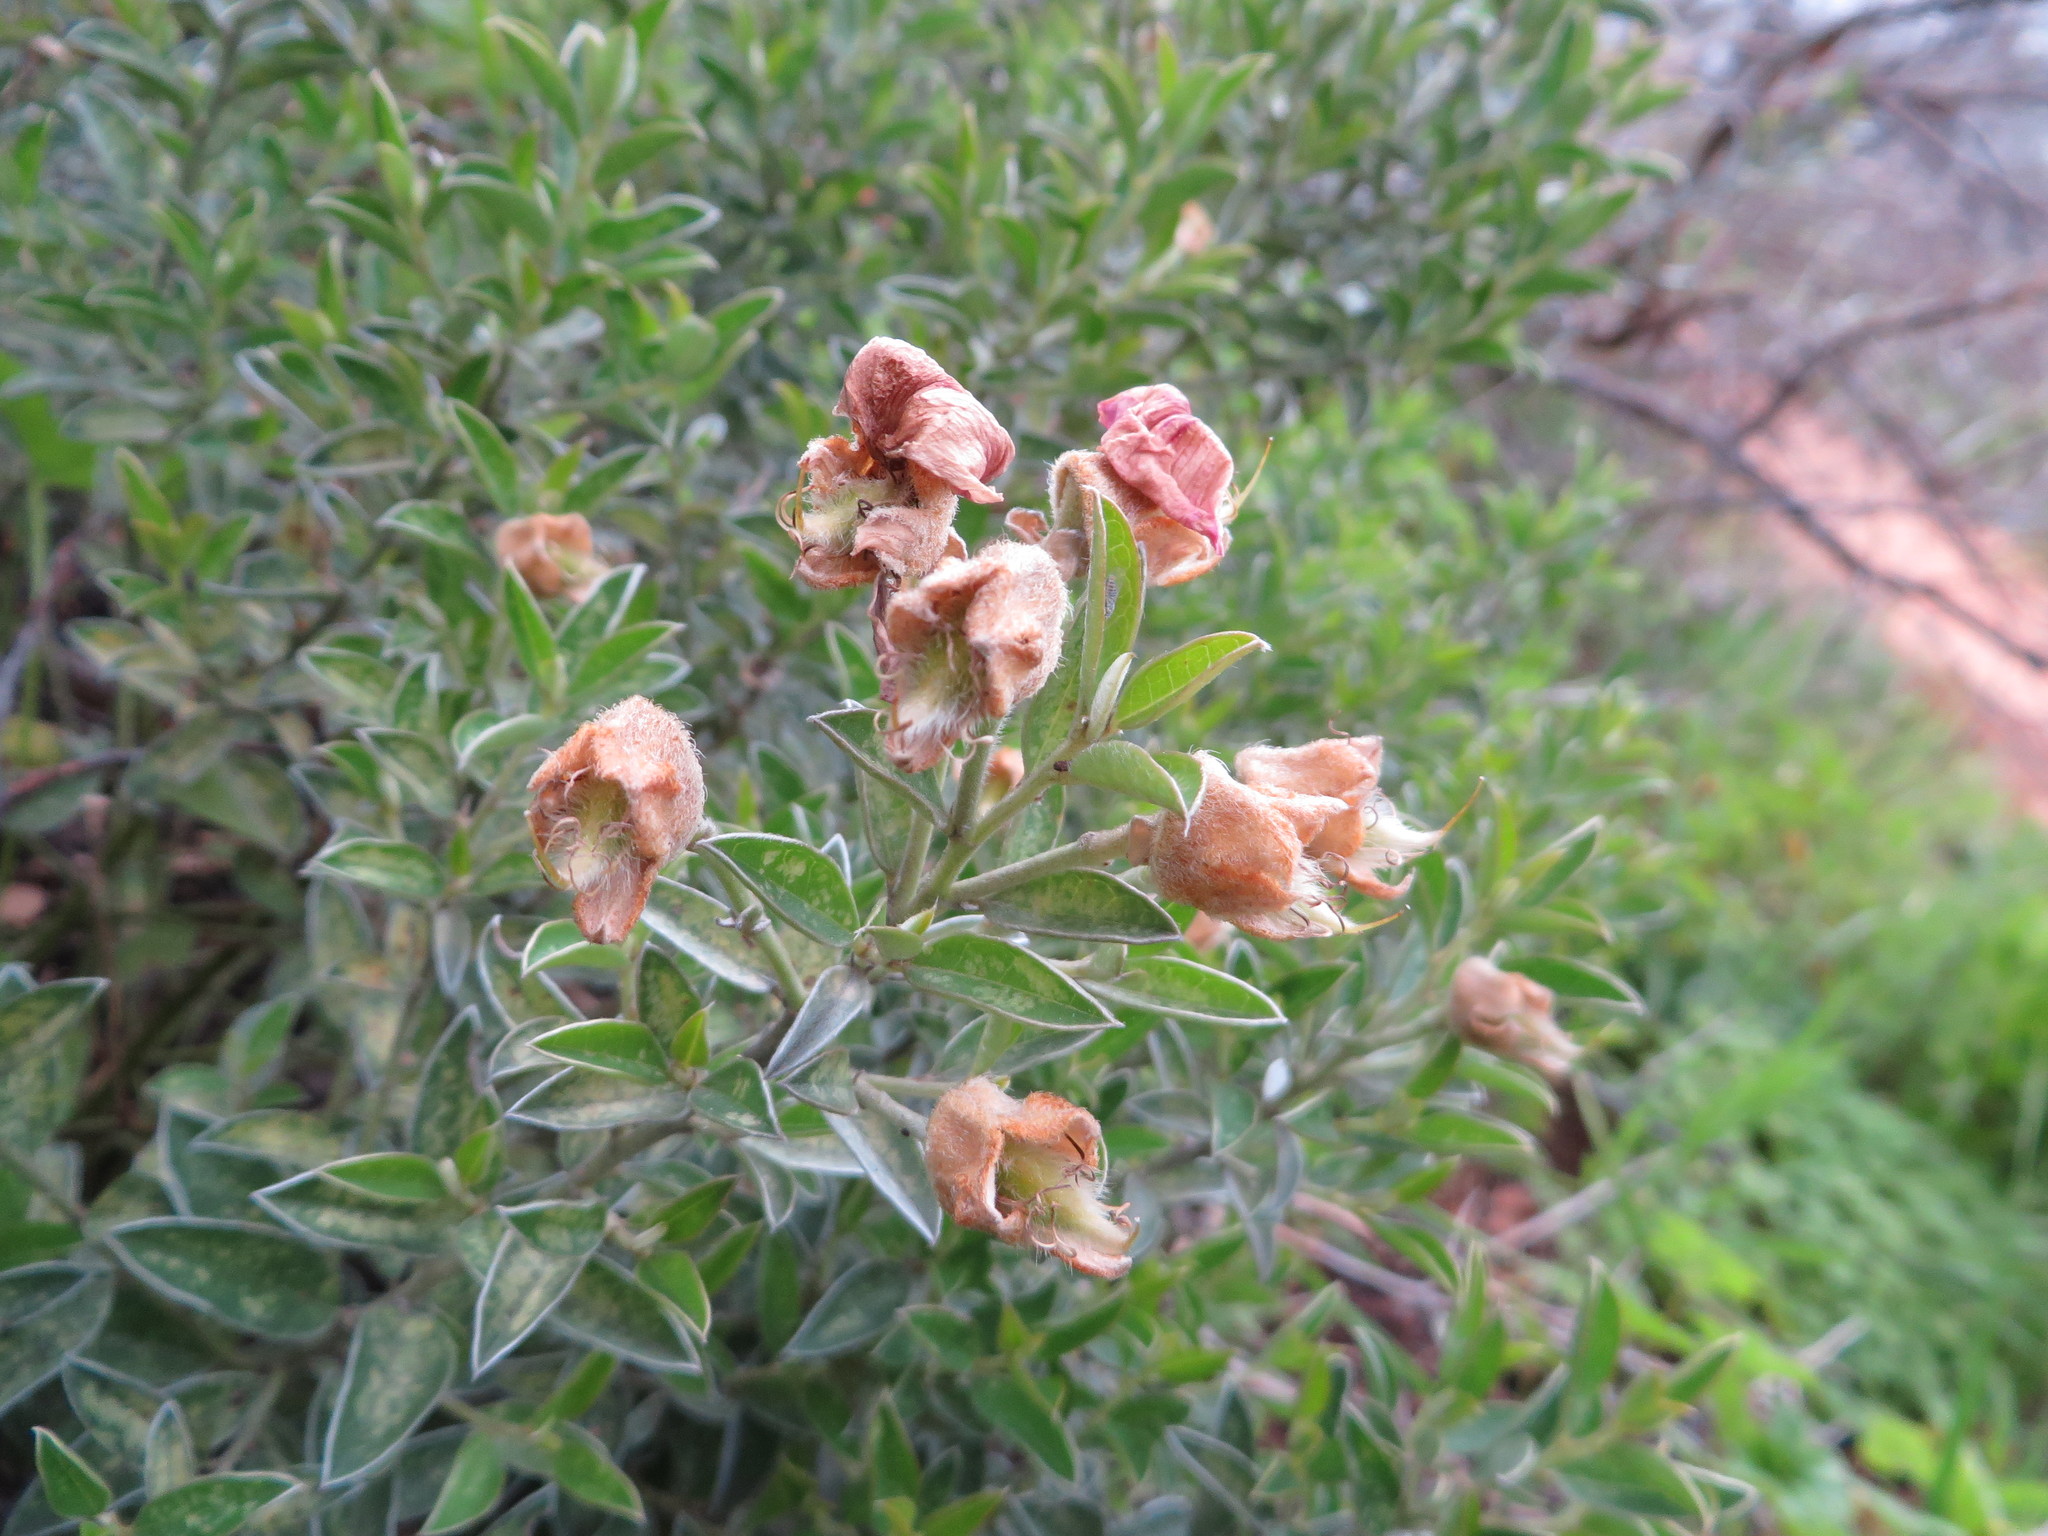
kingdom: Plantae
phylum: Tracheophyta
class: Magnoliopsida
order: Fabales
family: Fabaceae
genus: Podalyria
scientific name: Podalyria variabilis
